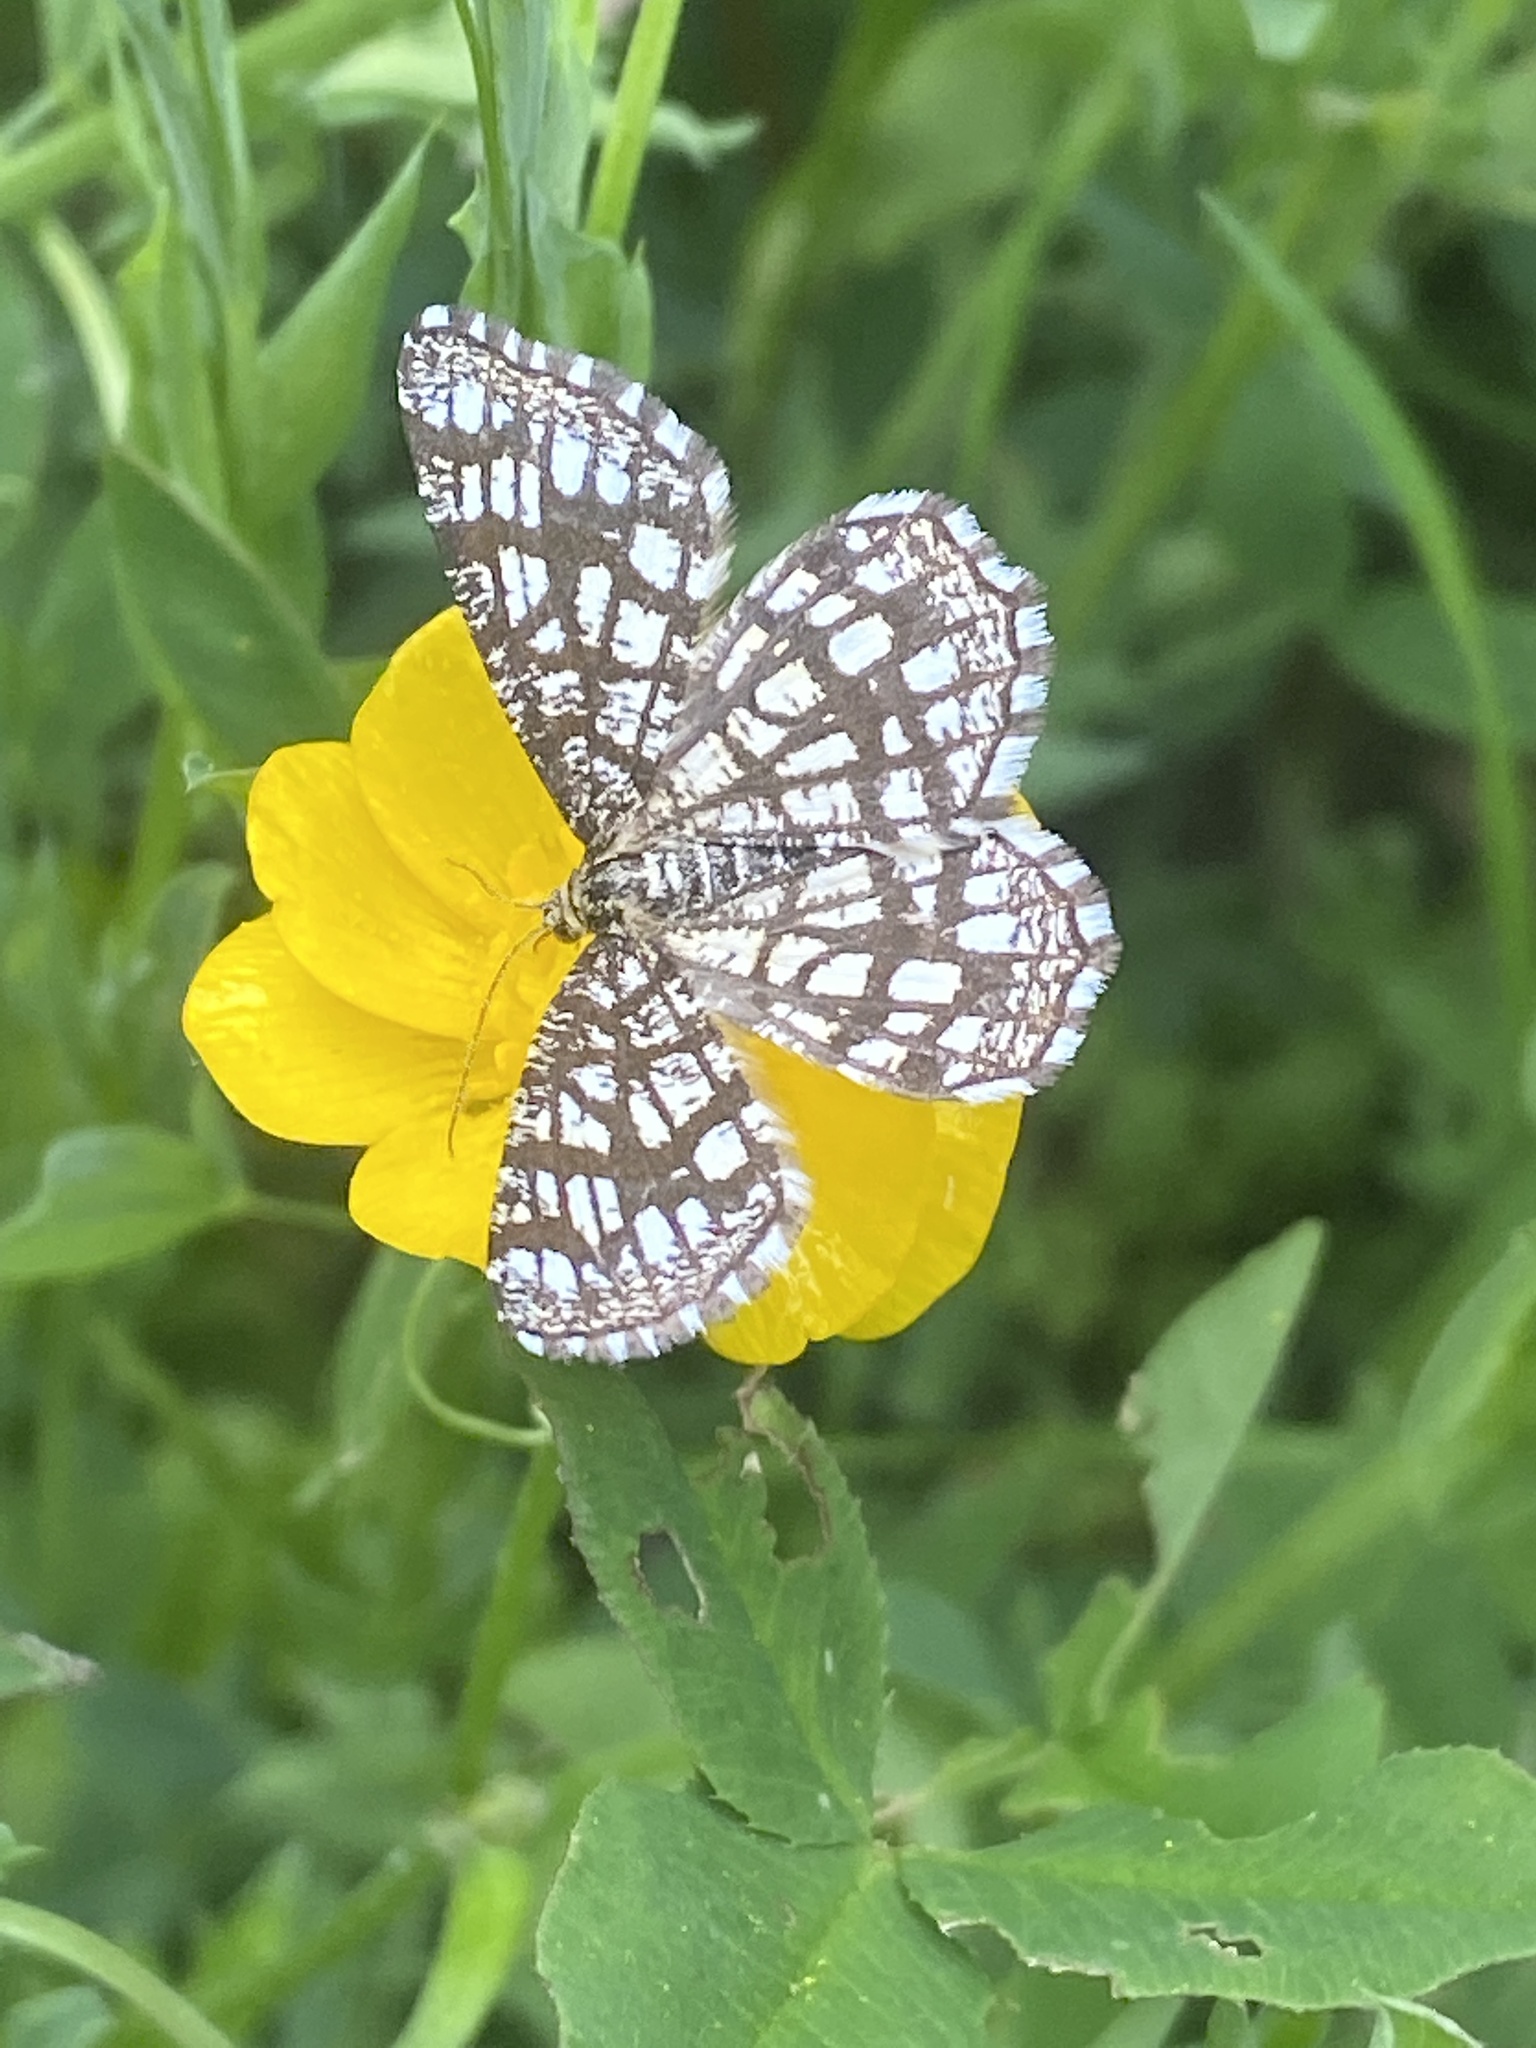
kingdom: Animalia
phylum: Arthropoda
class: Insecta
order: Lepidoptera
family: Geometridae
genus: Chiasmia
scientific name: Chiasmia clathrata
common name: Latticed heath
